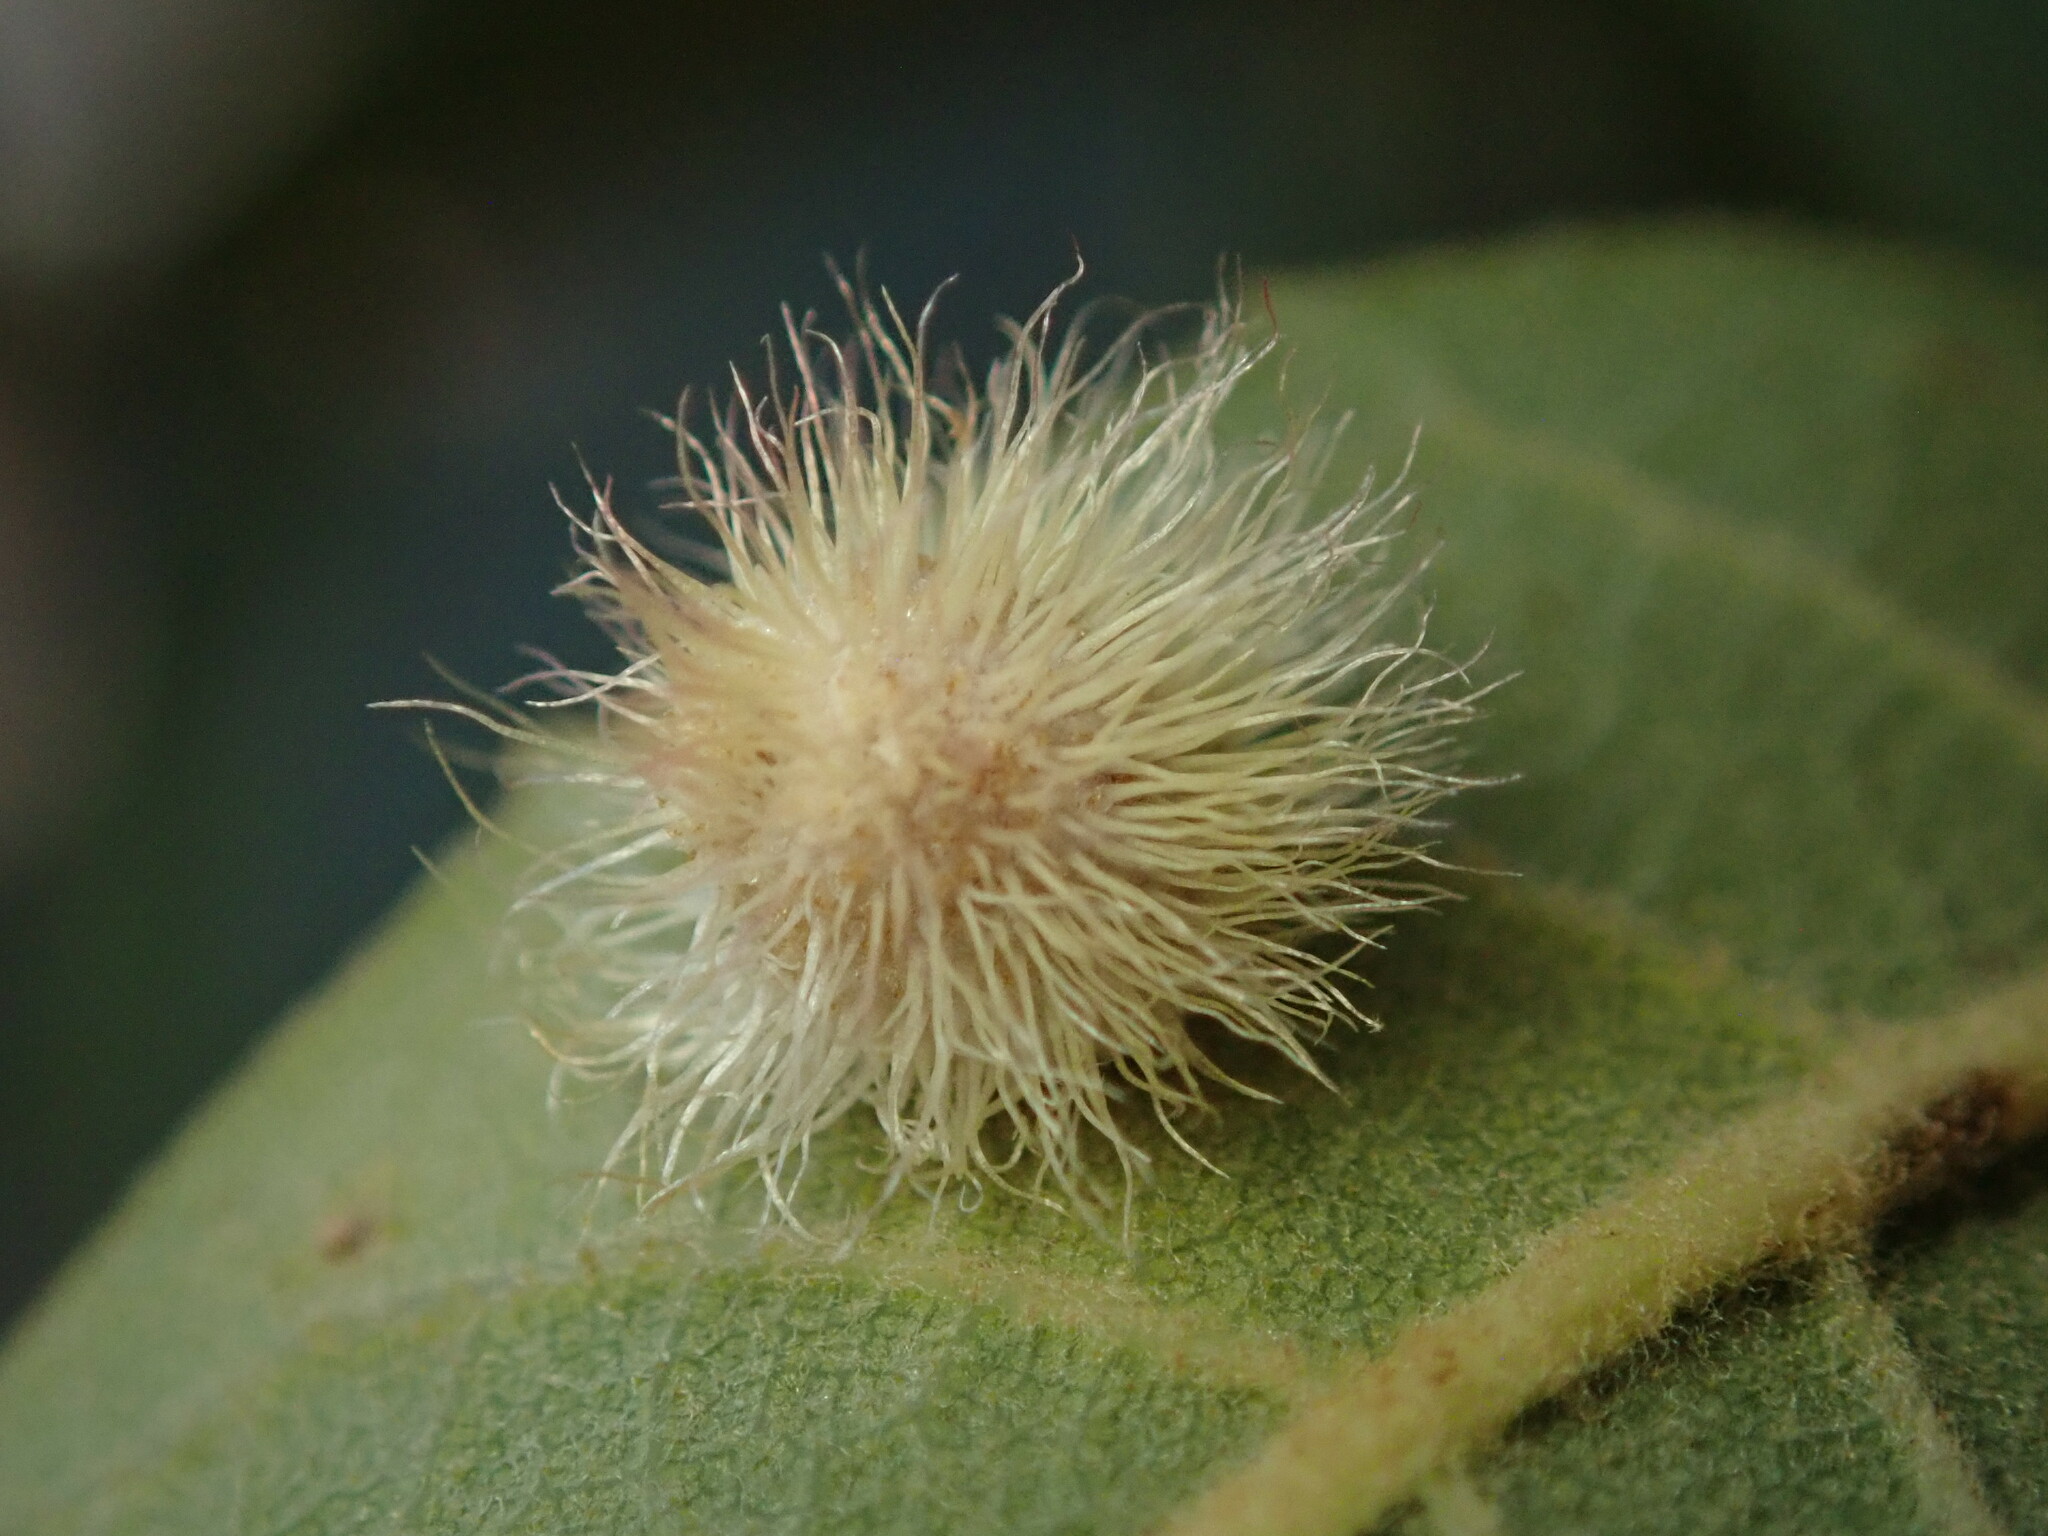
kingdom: Animalia
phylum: Arthropoda
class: Insecta
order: Hymenoptera
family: Cynipidae
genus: Andricus
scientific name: Andricus
